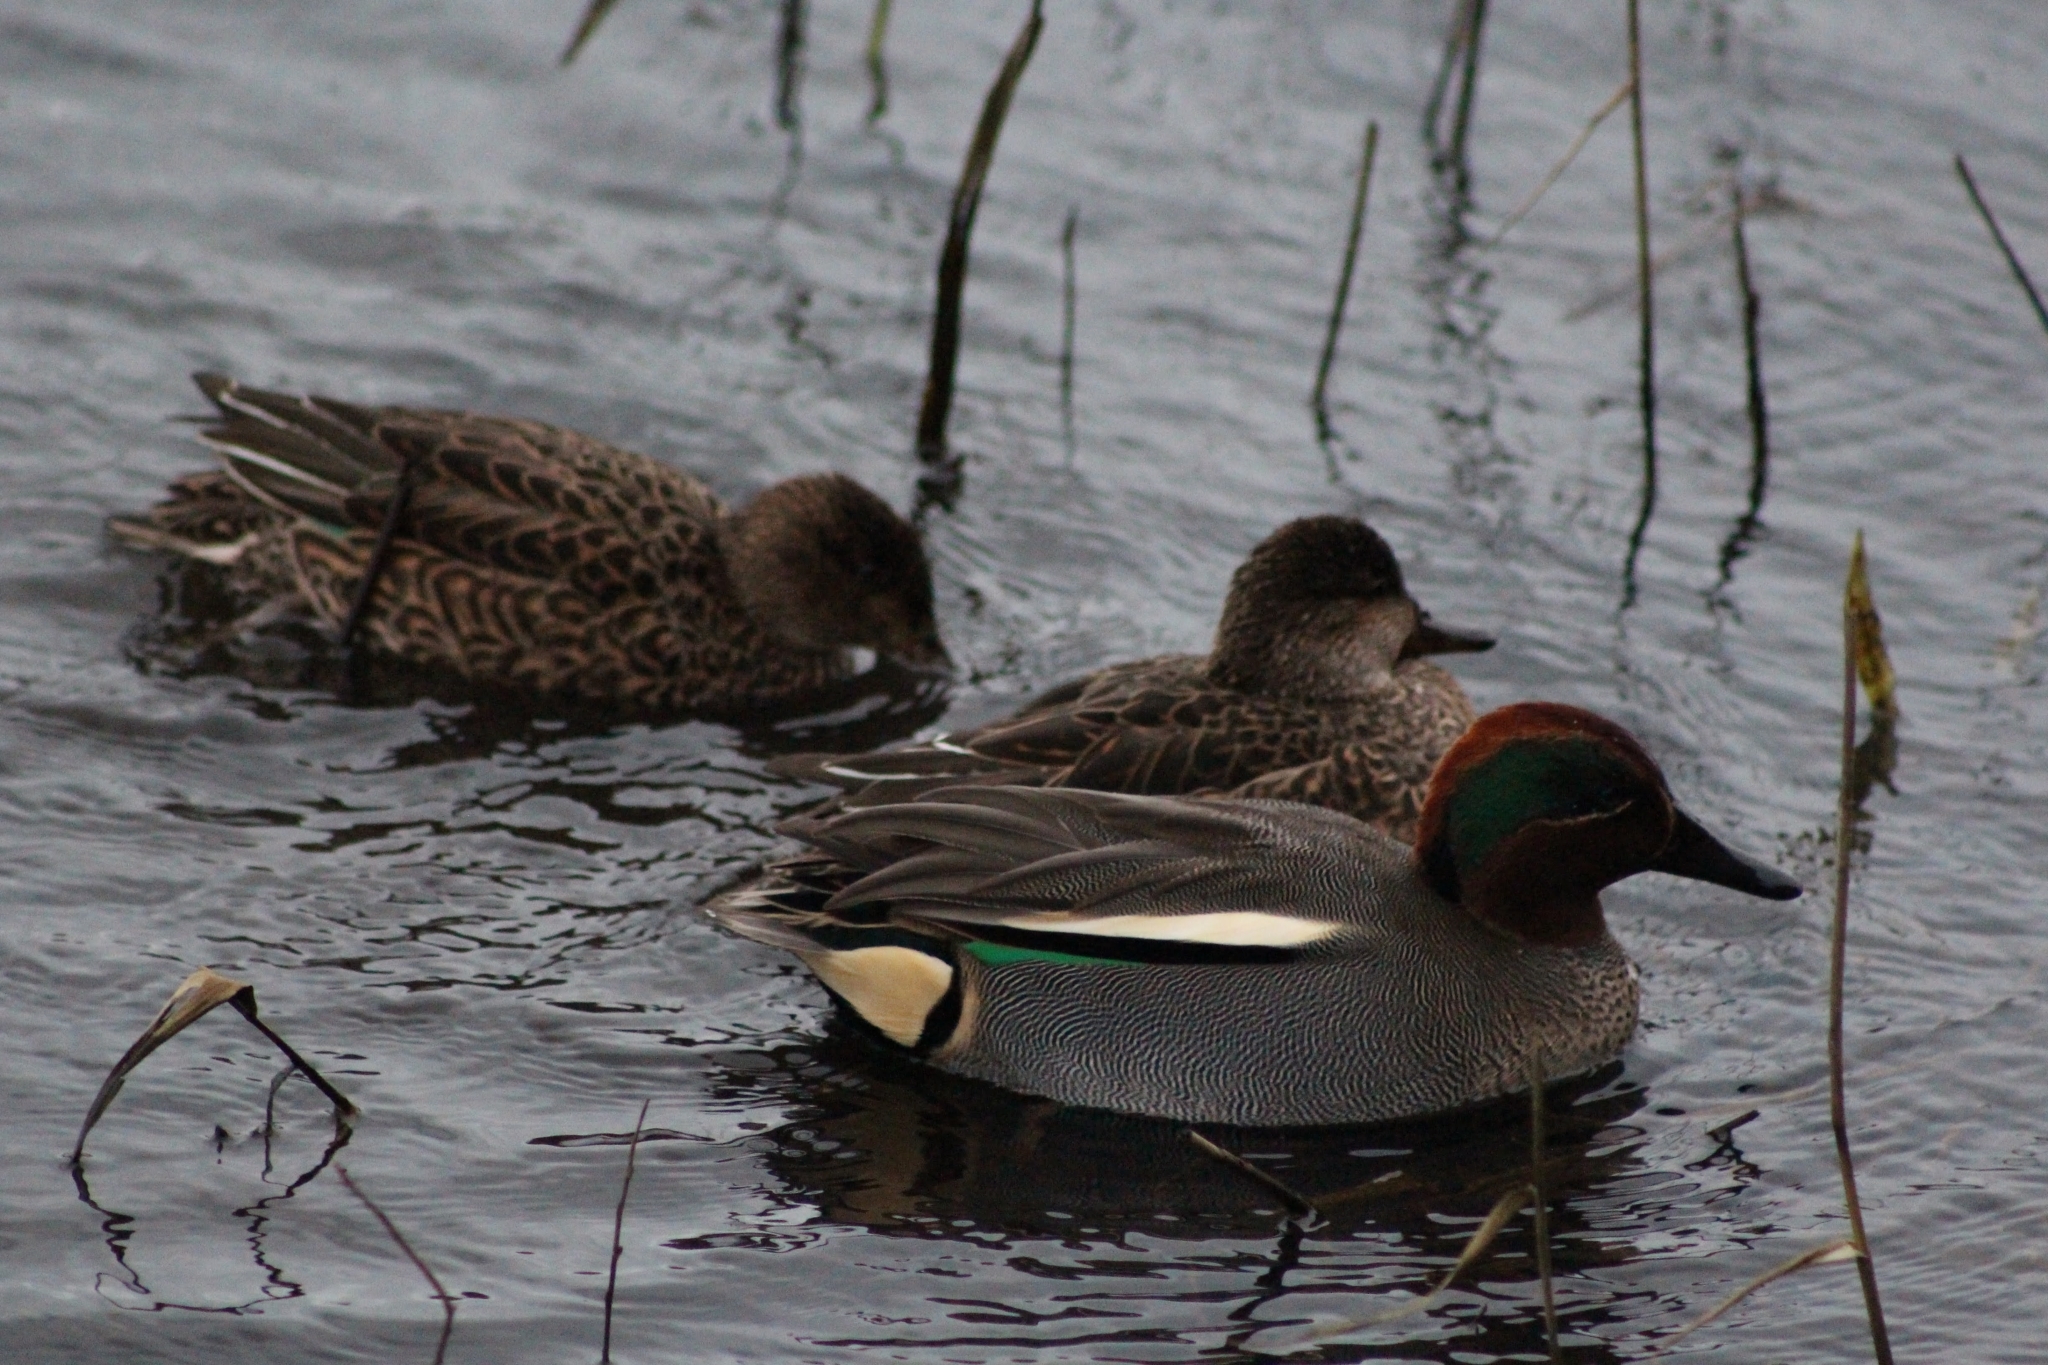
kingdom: Animalia
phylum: Chordata
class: Aves
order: Anseriformes
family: Anatidae
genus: Anas
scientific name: Anas crecca
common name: Eurasian teal
